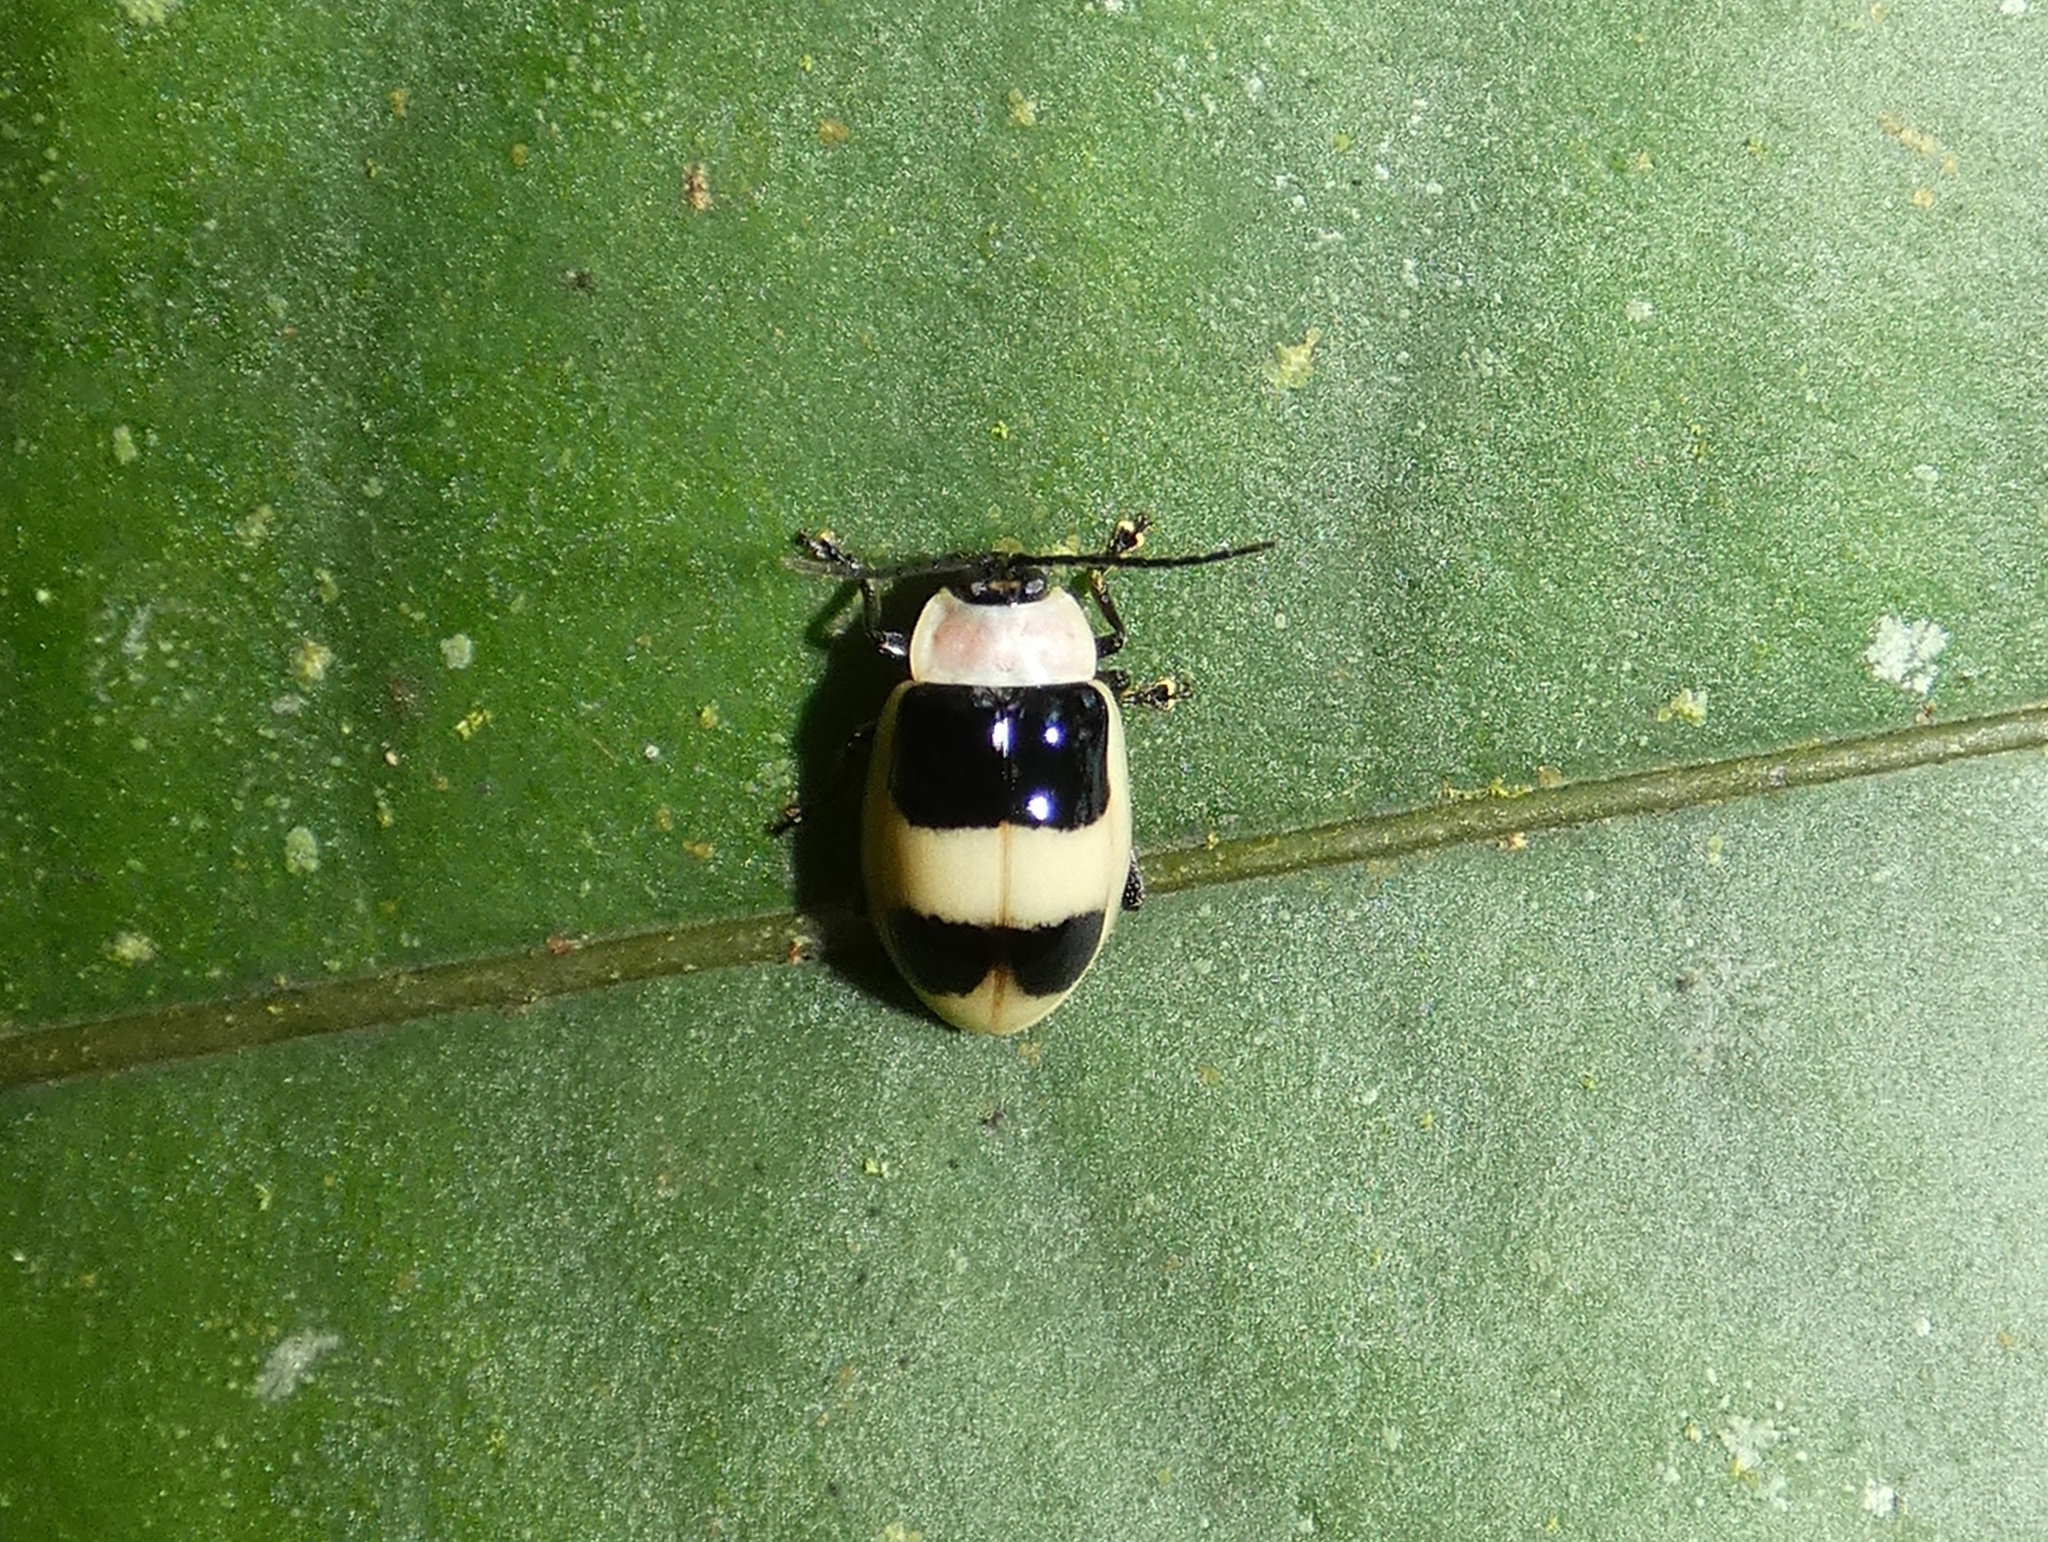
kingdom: Animalia
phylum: Arthropoda
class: Insecta
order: Coleoptera
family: Chrysomelidae
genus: Asphaera
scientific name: Asphaera
